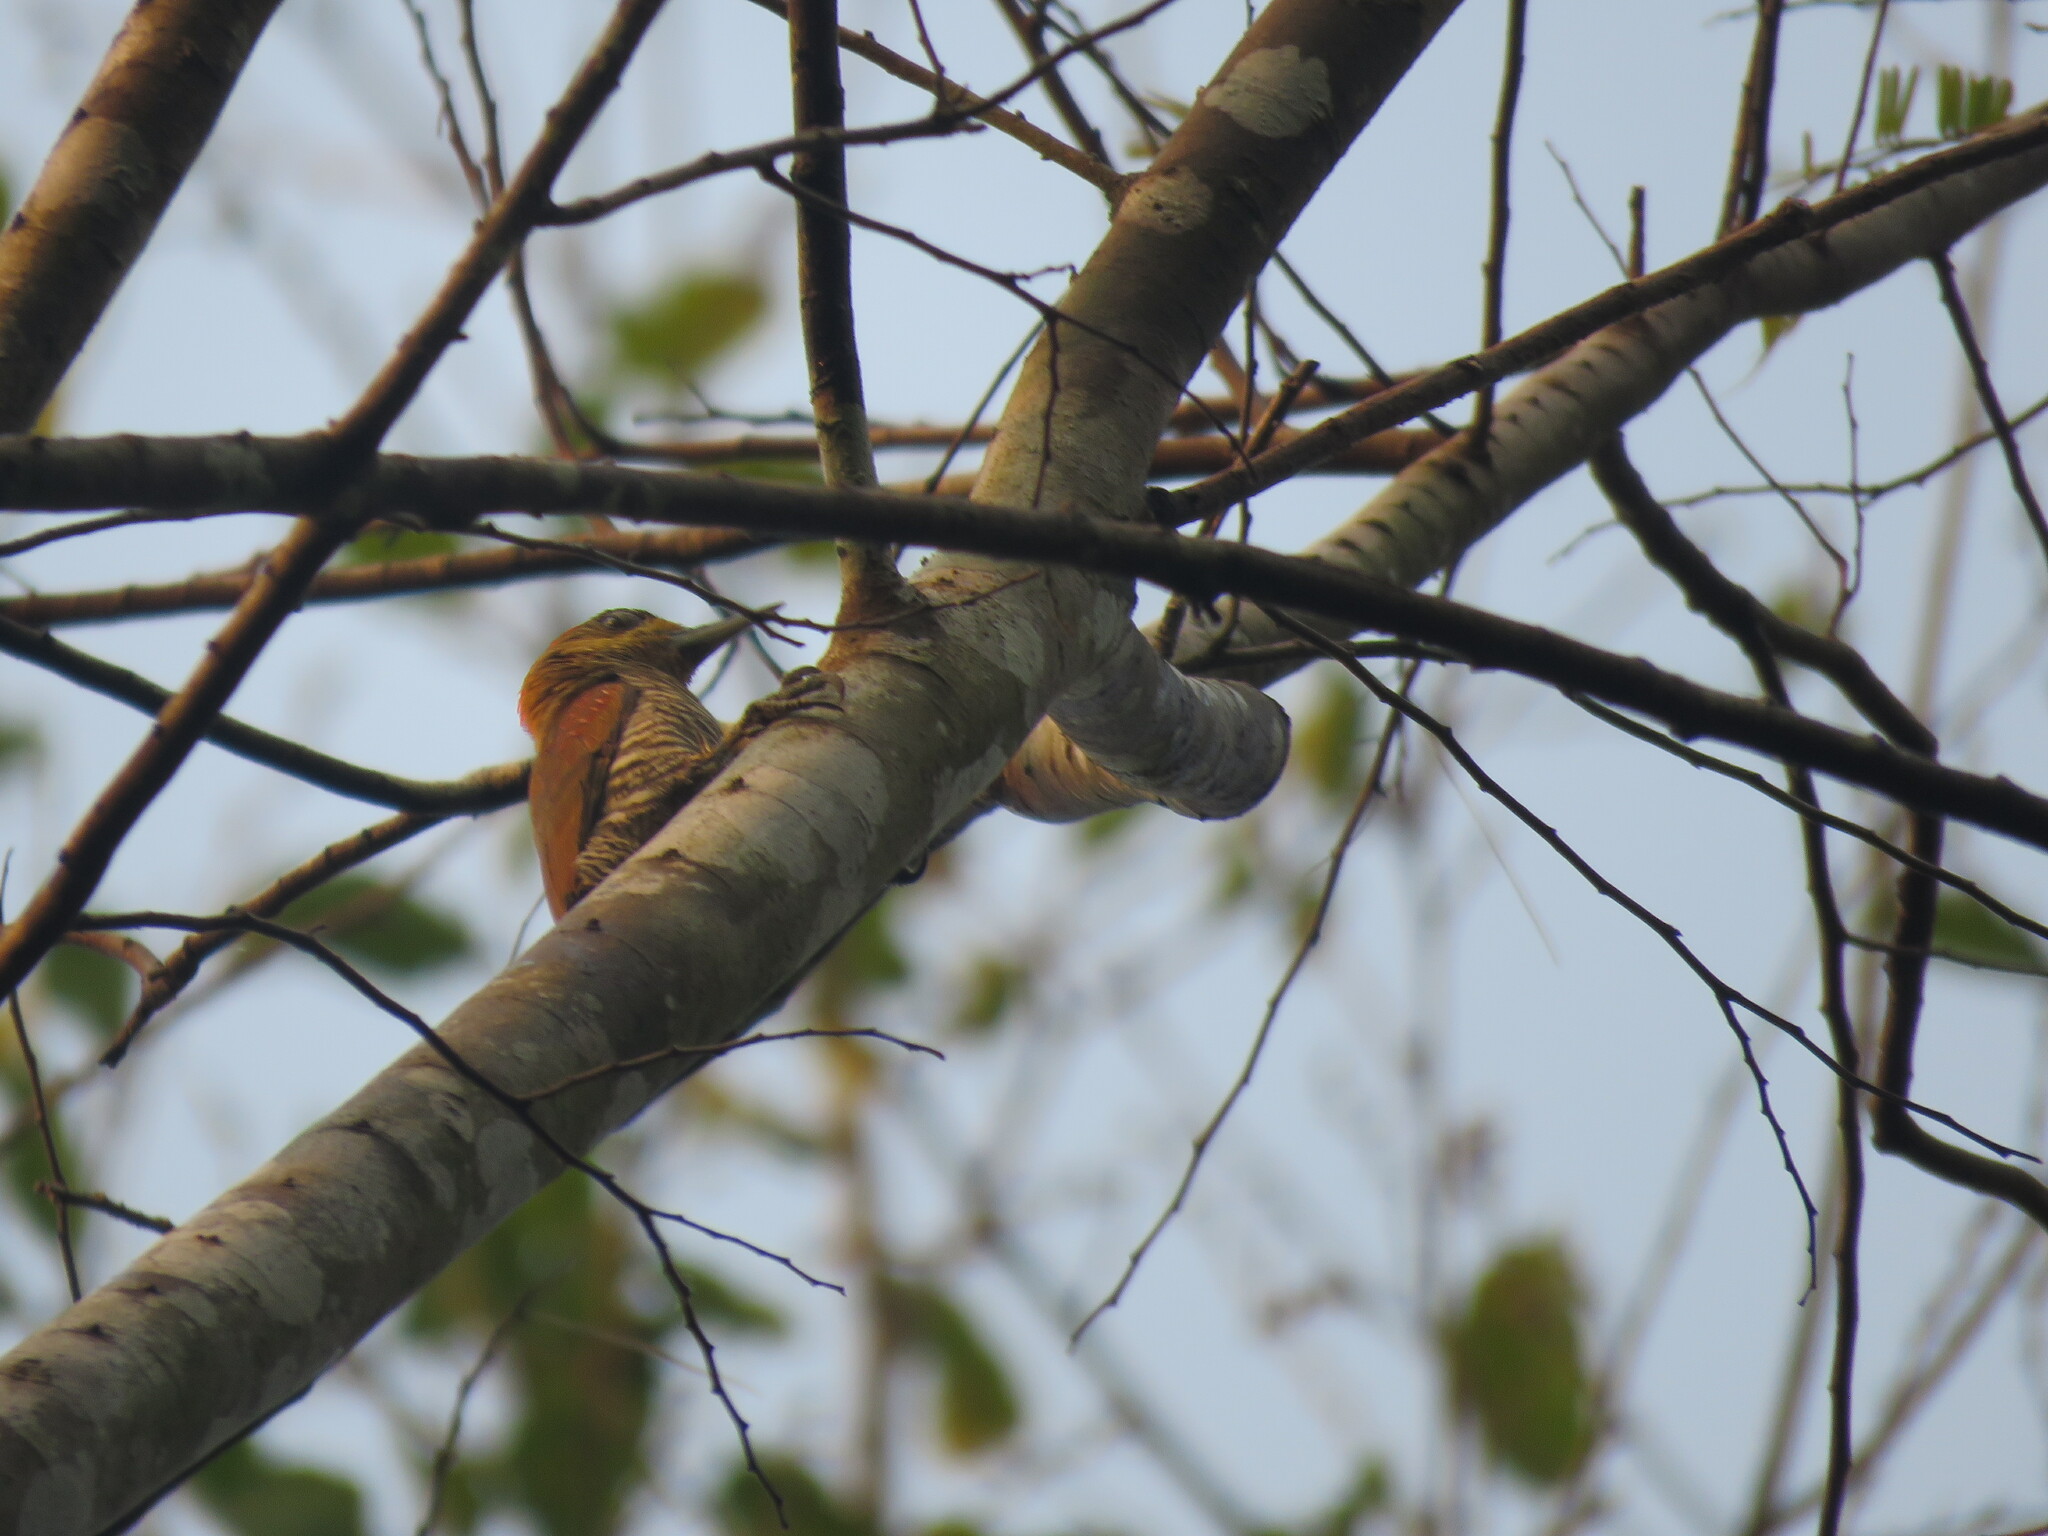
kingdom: Animalia
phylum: Chordata
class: Aves
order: Piciformes
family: Picidae
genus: Veniliornis
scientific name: Veniliornis affinis
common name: Red-stained woodpecker
